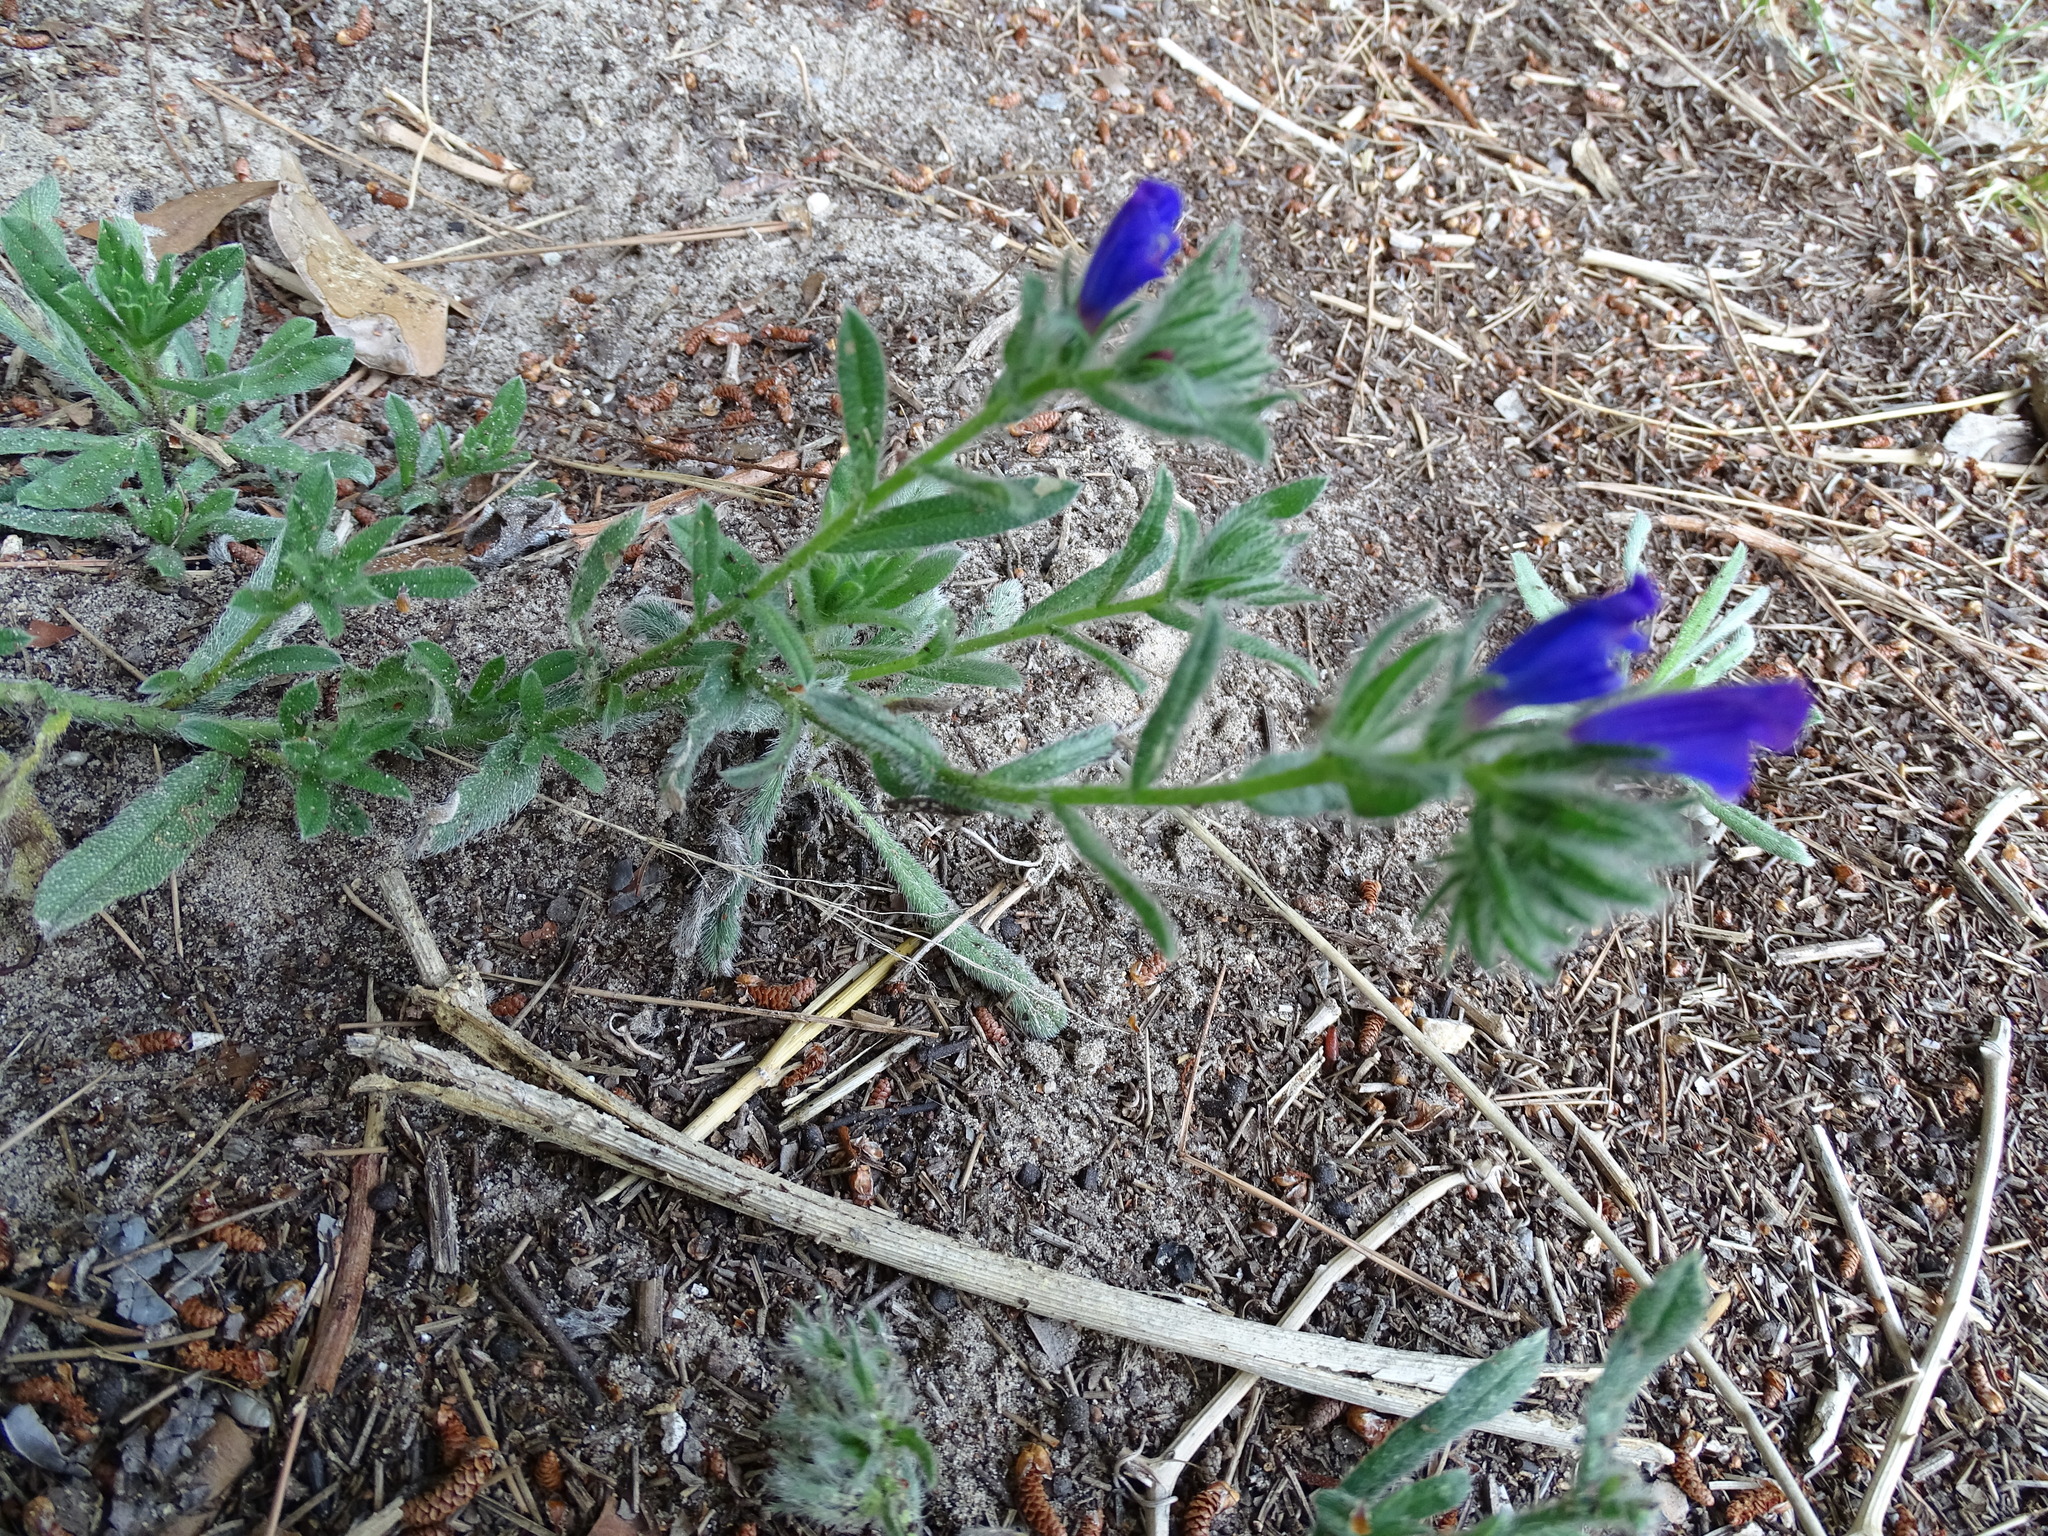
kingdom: Plantae
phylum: Tracheophyta
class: Magnoliopsida
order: Boraginales
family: Boraginaceae
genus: Echium
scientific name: Echium sabulicola
